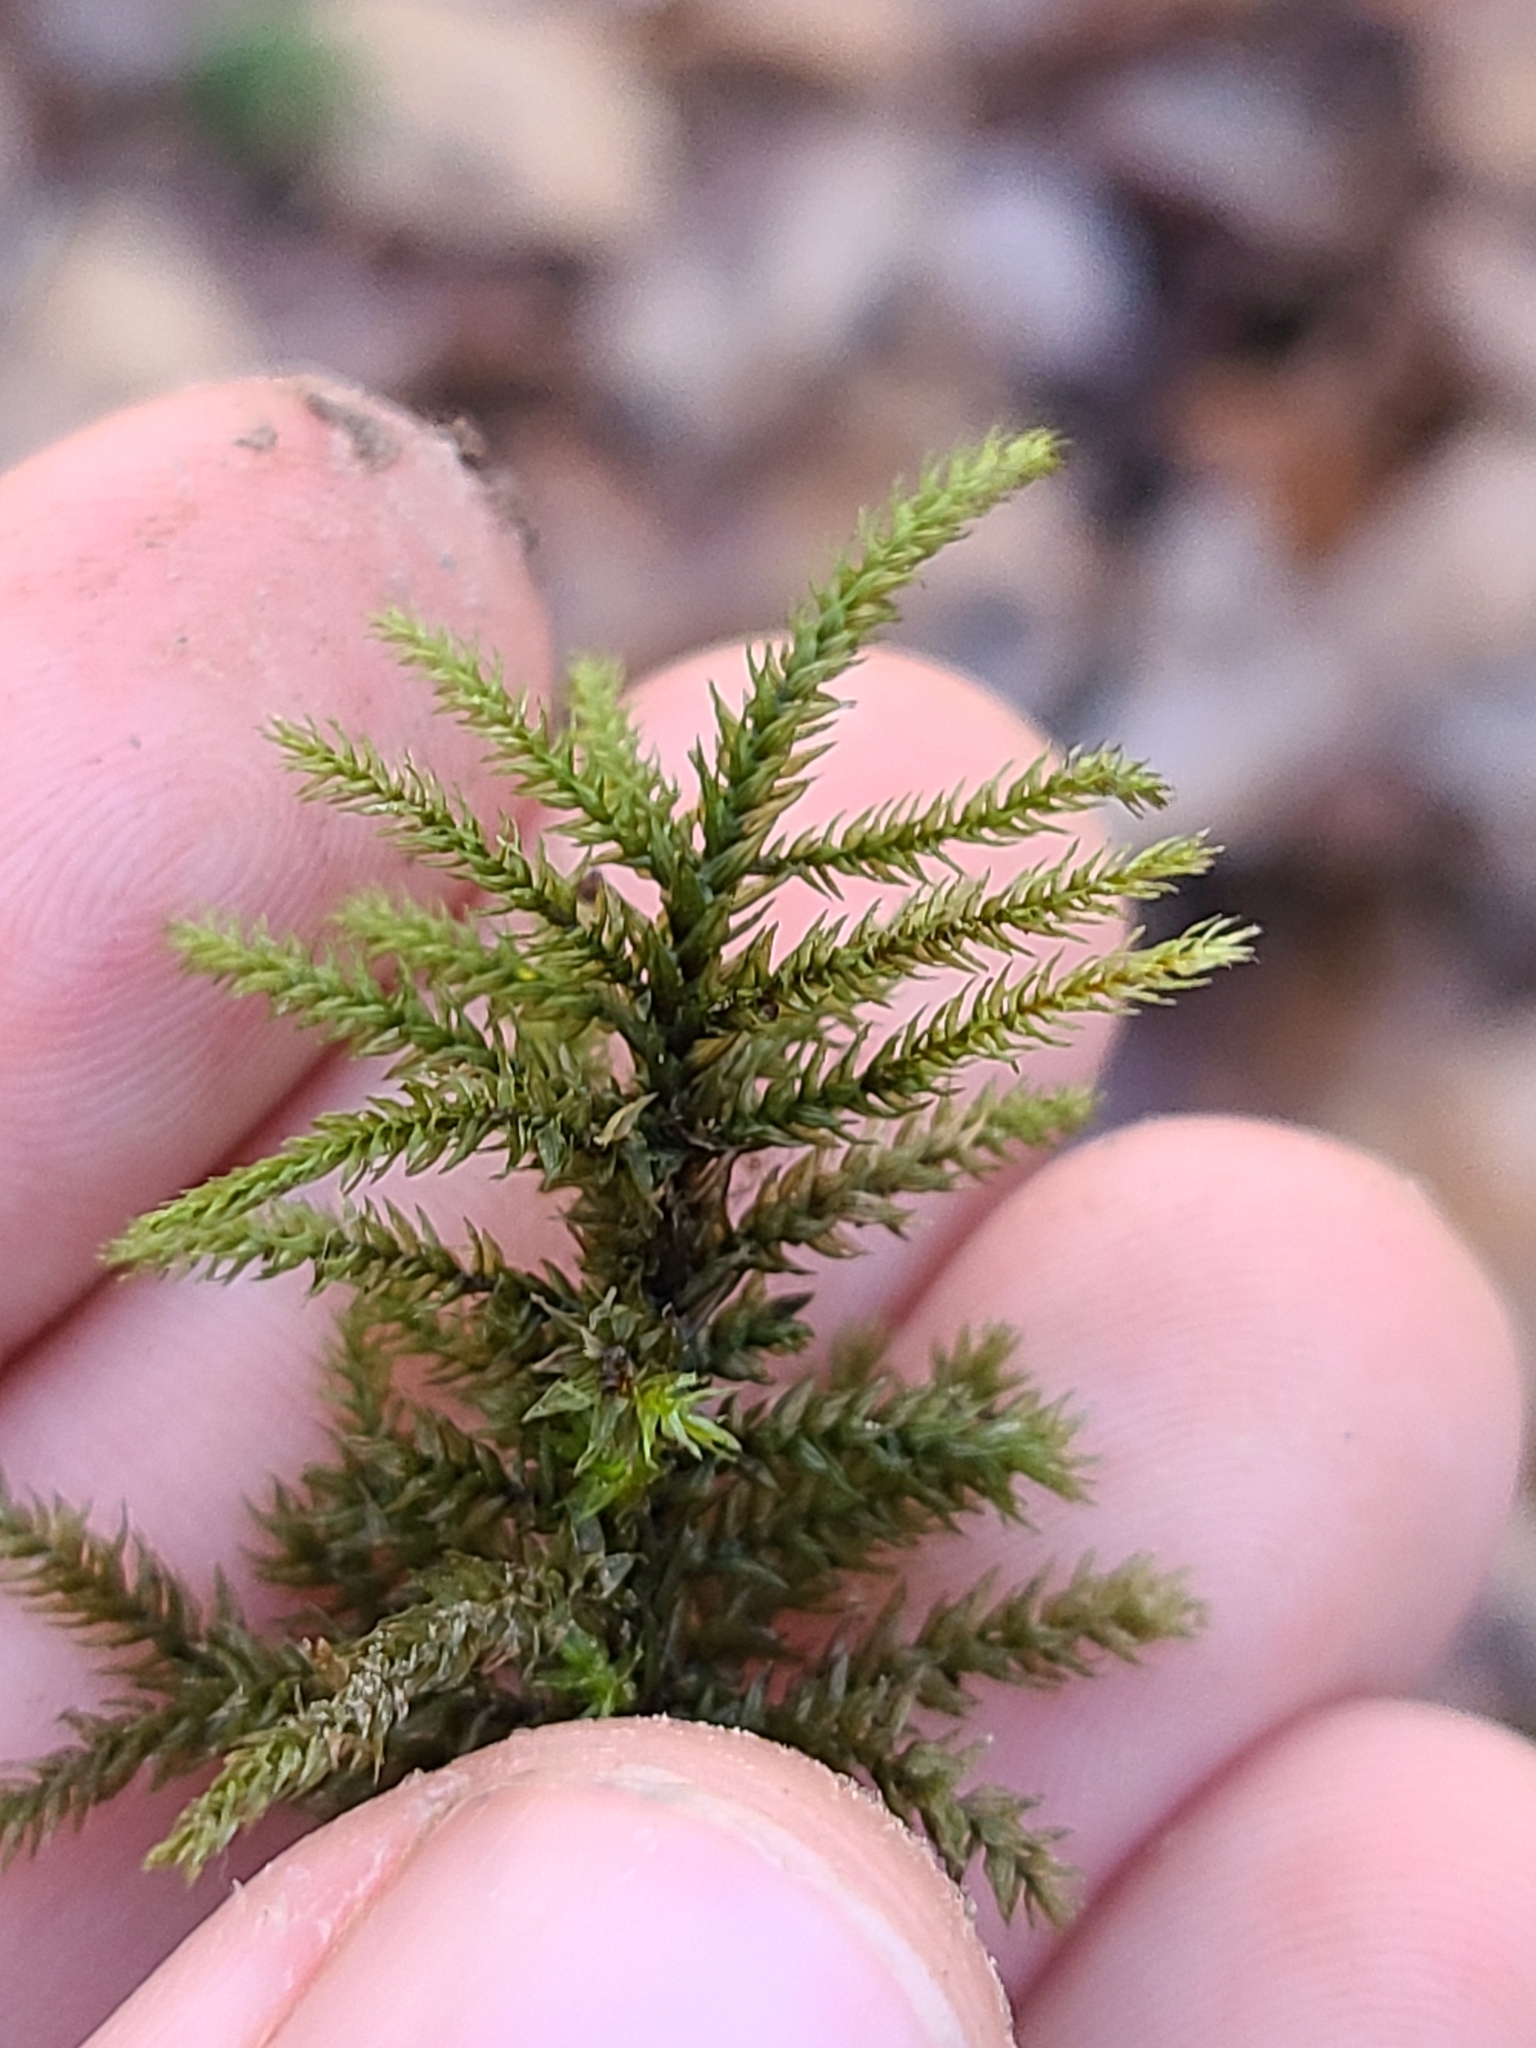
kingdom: Plantae
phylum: Bryophyta
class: Bryopsida
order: Hypnales
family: Climaciaceae
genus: Climacium
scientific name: Climacium americanum
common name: American tree moss
